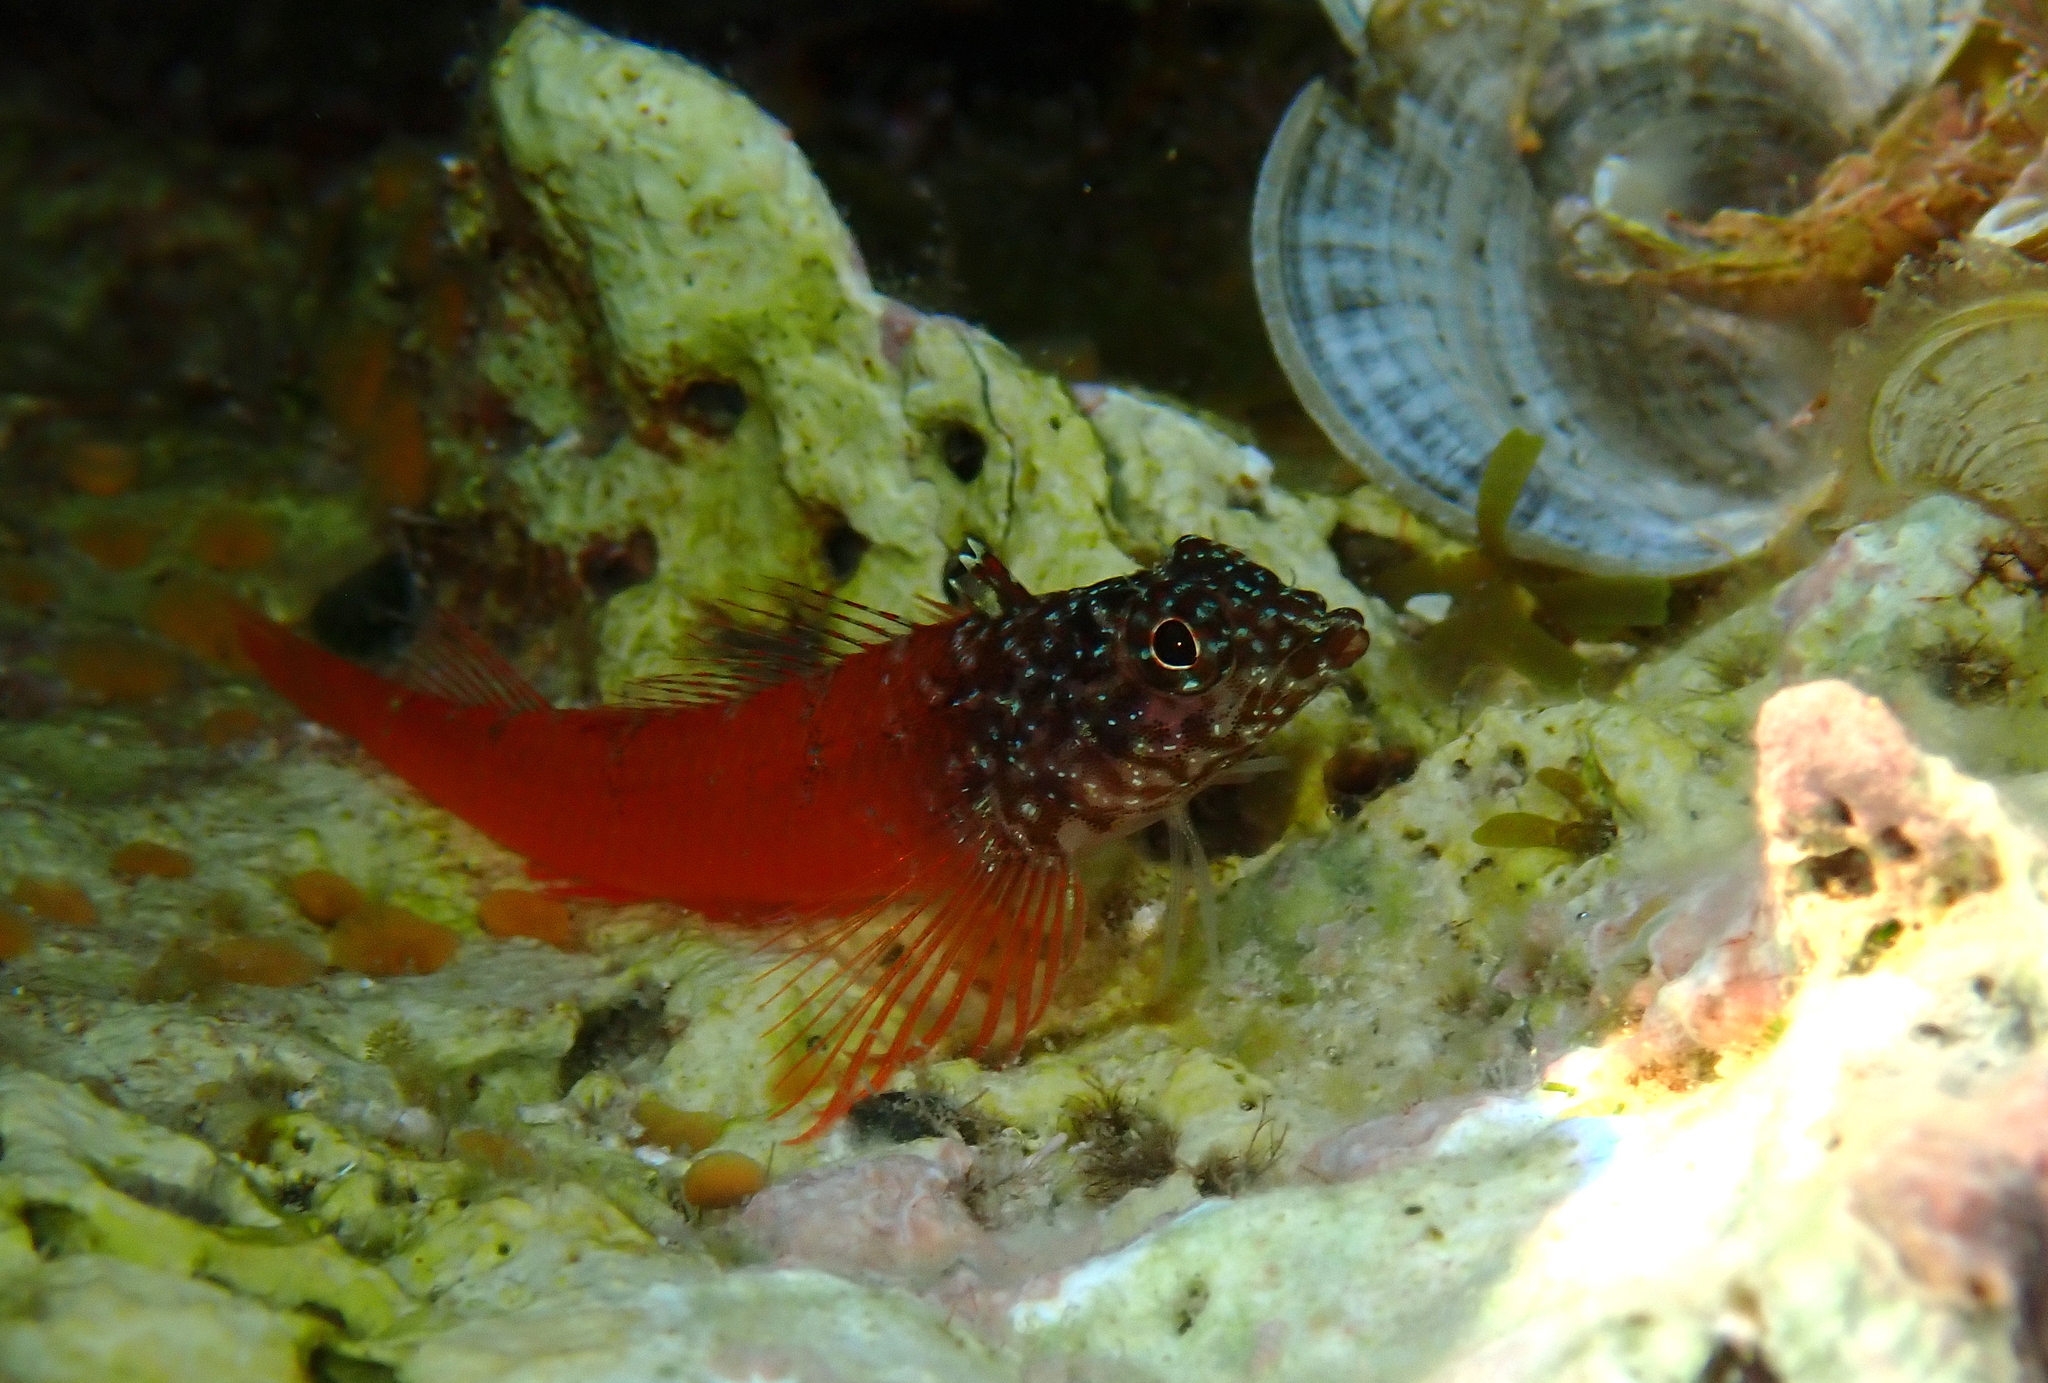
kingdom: Animalia
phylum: Chordata
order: Perciformes
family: Tripterygiidae
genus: Tripterygion
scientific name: Tripterygion melanurum
